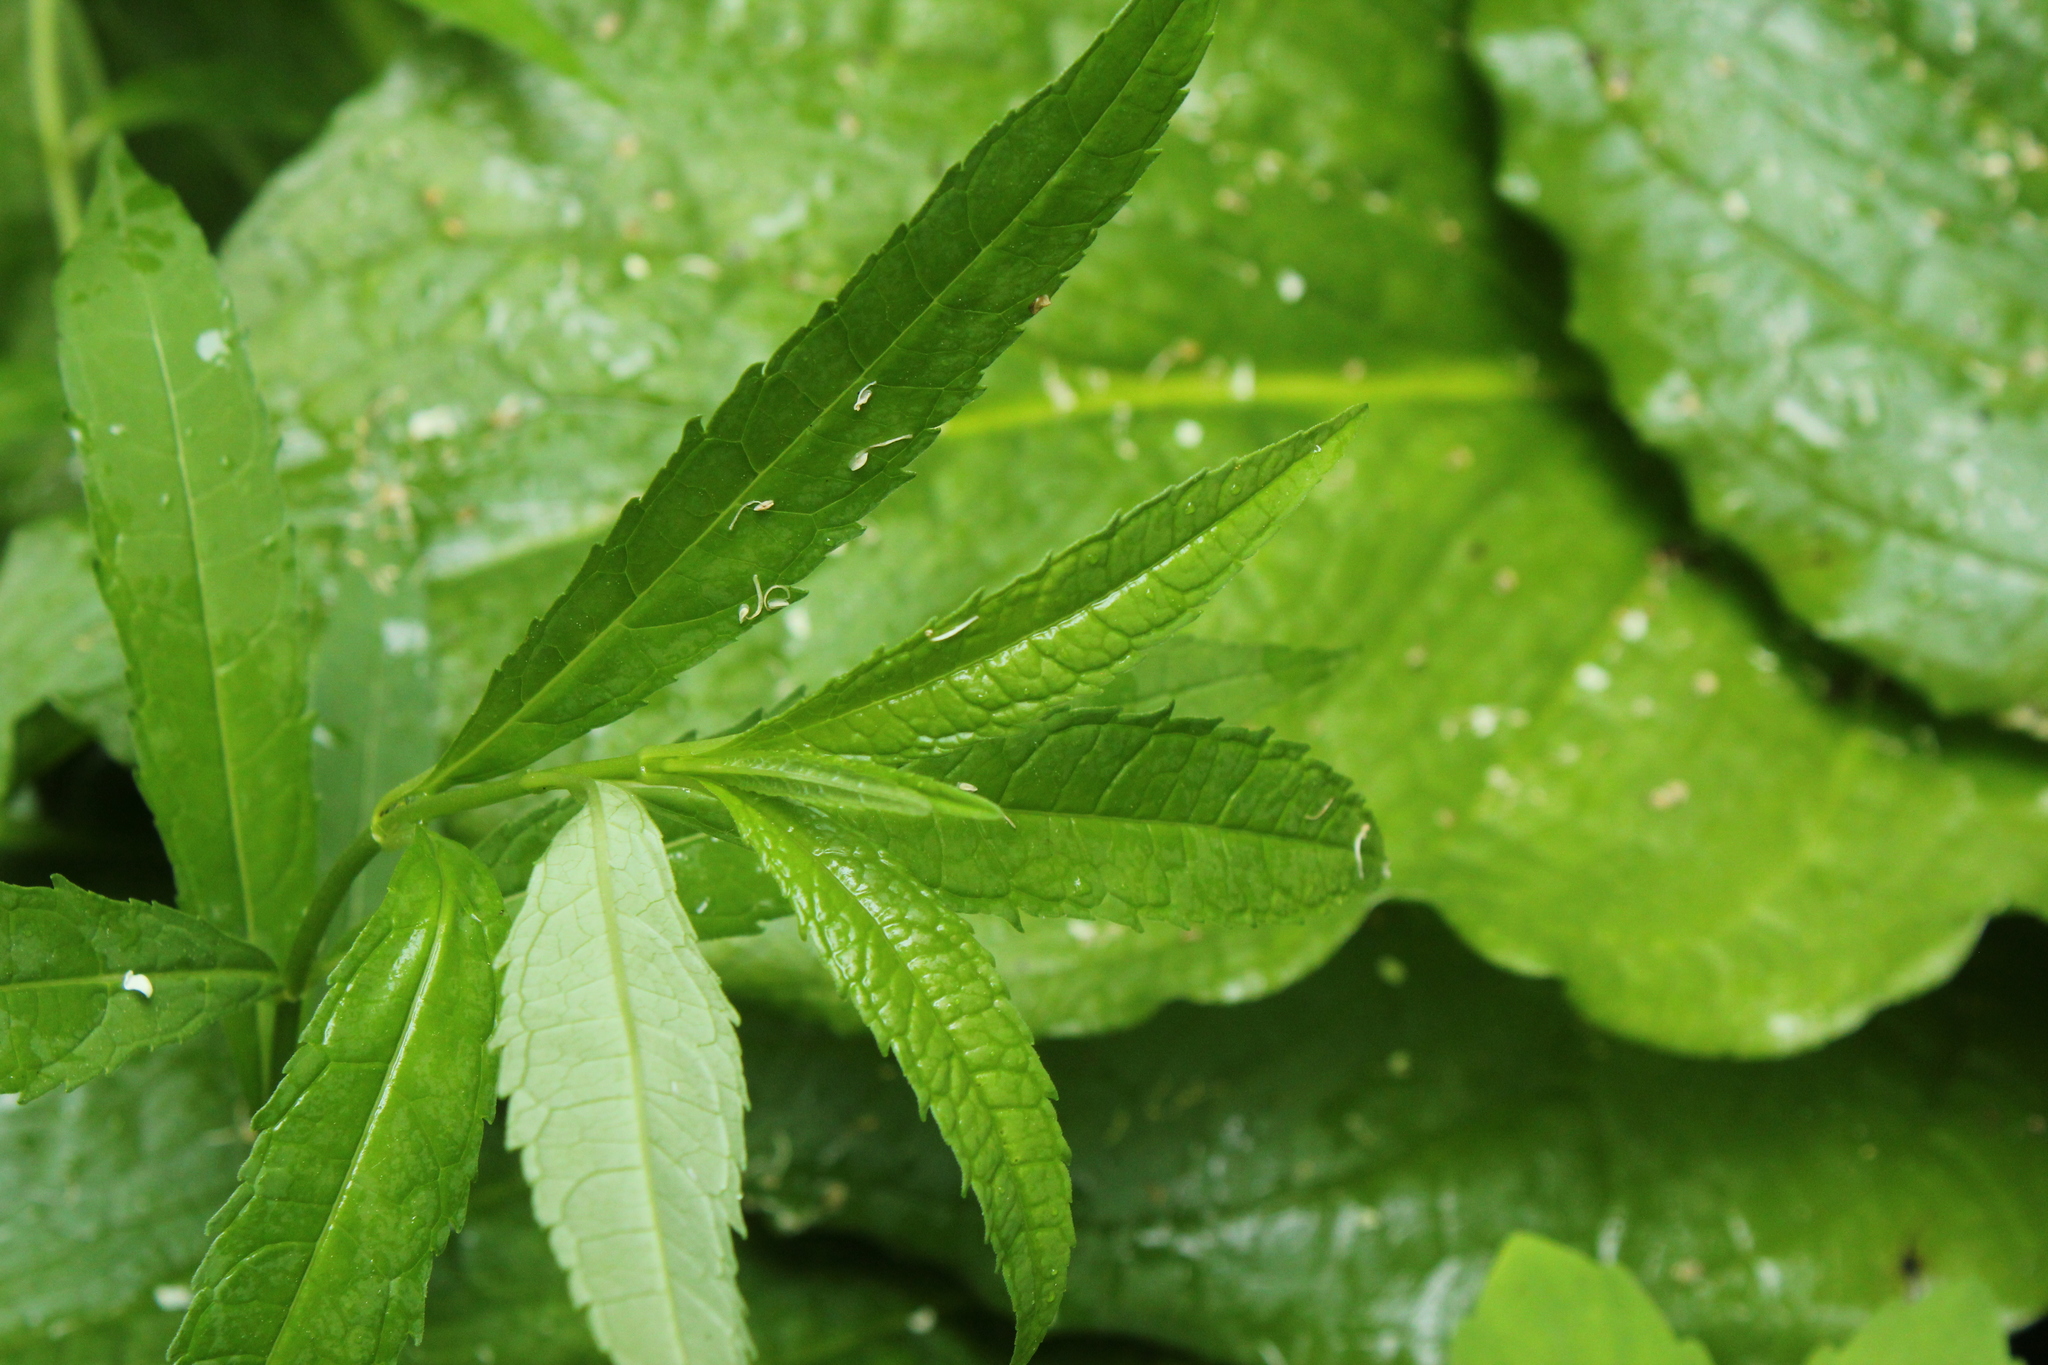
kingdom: Plantae
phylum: Tracheophyta
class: Magnoliopsida
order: Lamiales
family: Plantaginaceae
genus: Chelone
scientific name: Chelone glabra
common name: Snakehead
